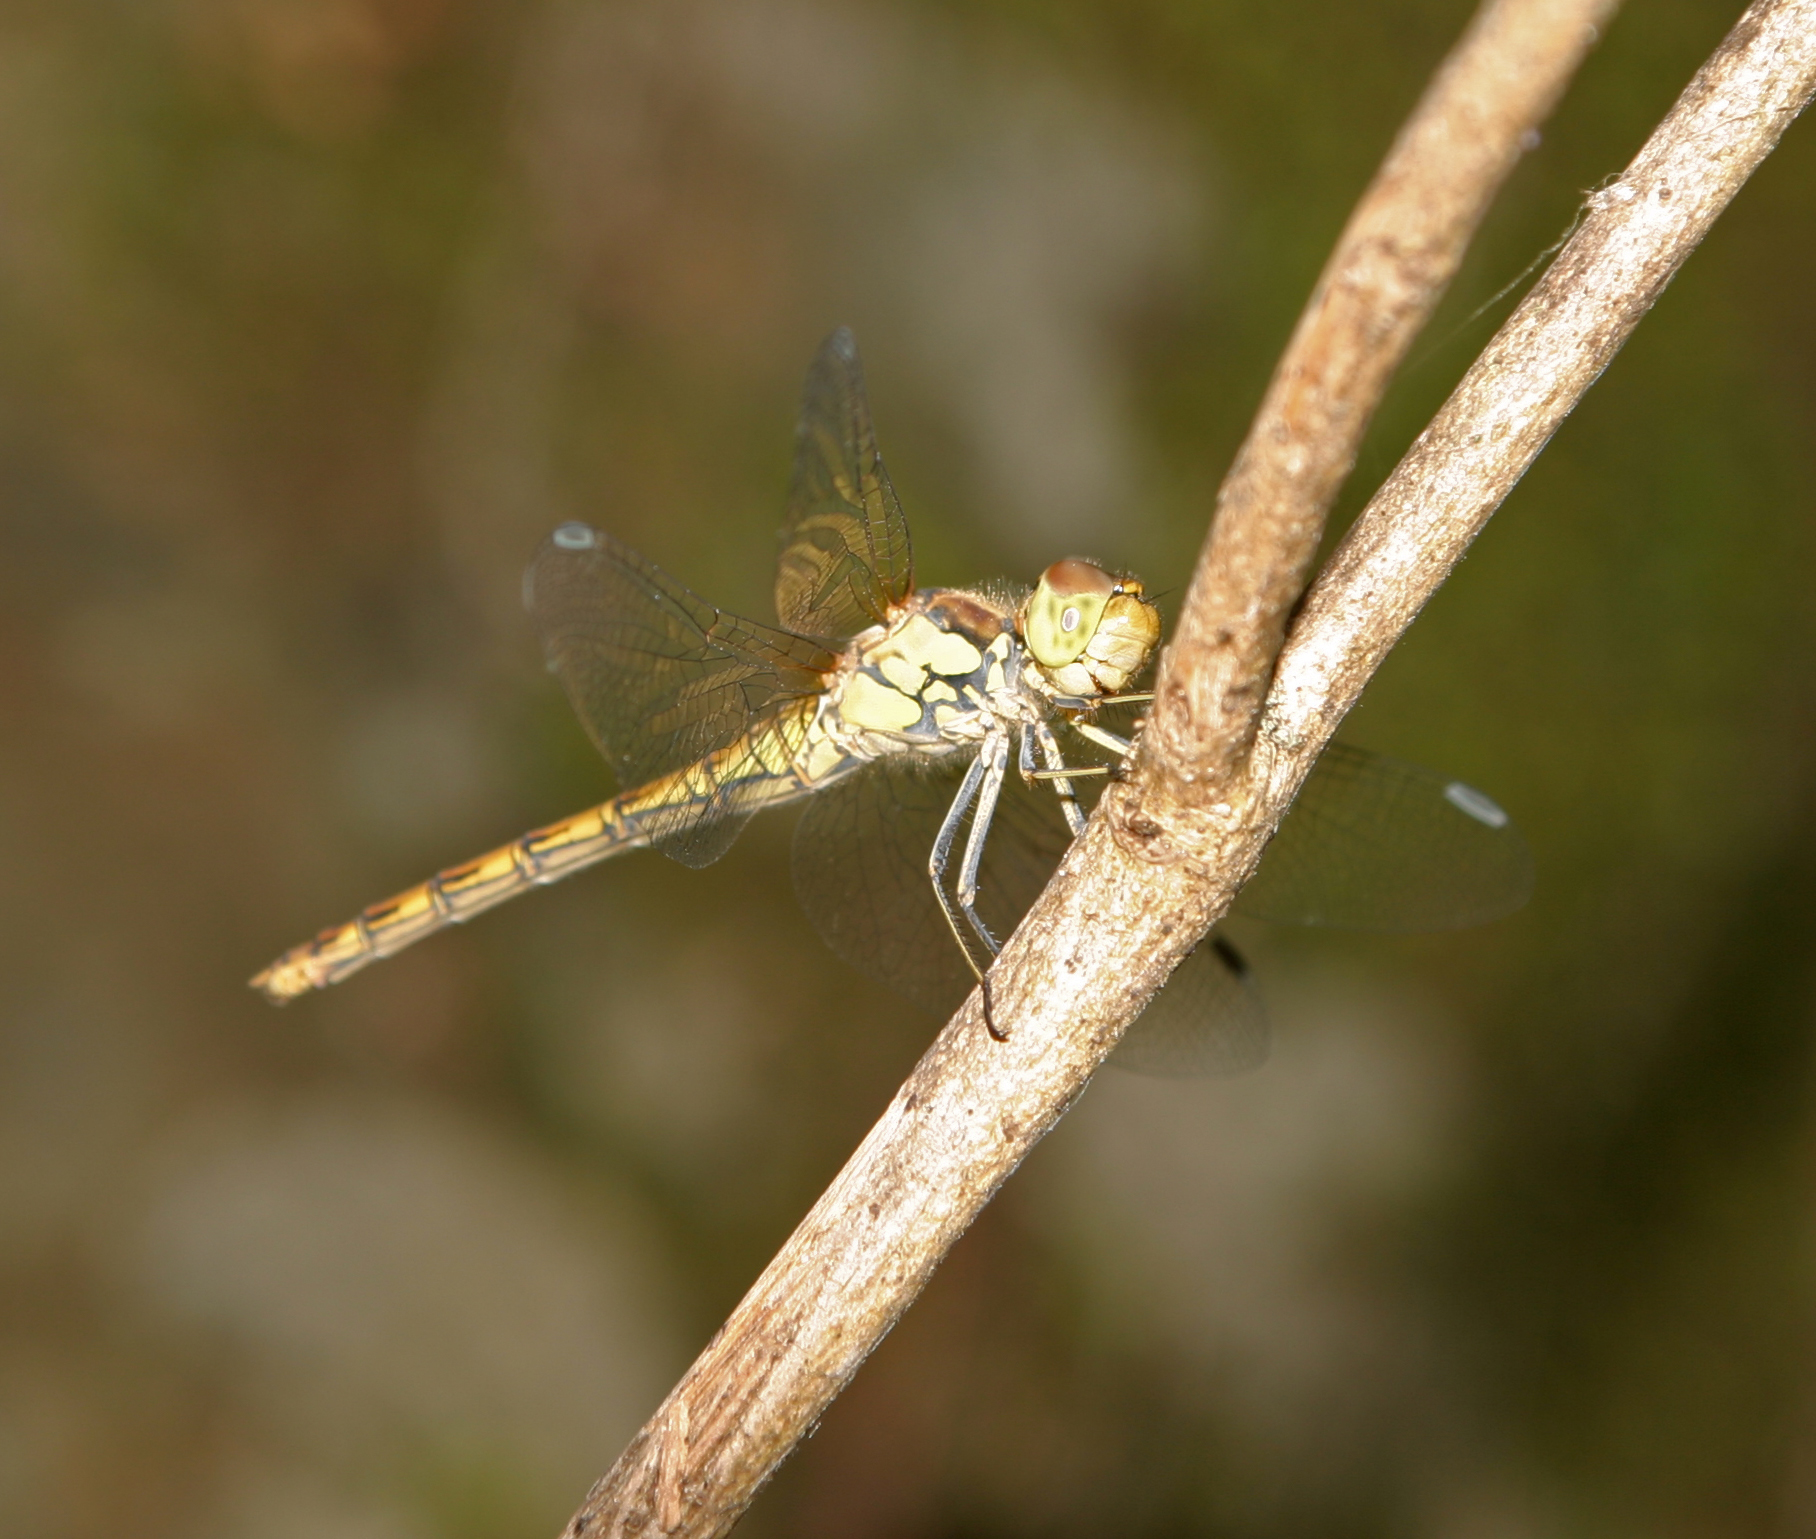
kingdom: Animalia
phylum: Arthropoda
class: Insecta
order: Odonata
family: Libellulidae
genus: Sympetrum
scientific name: Sympetrum striolatum
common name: Common darter
